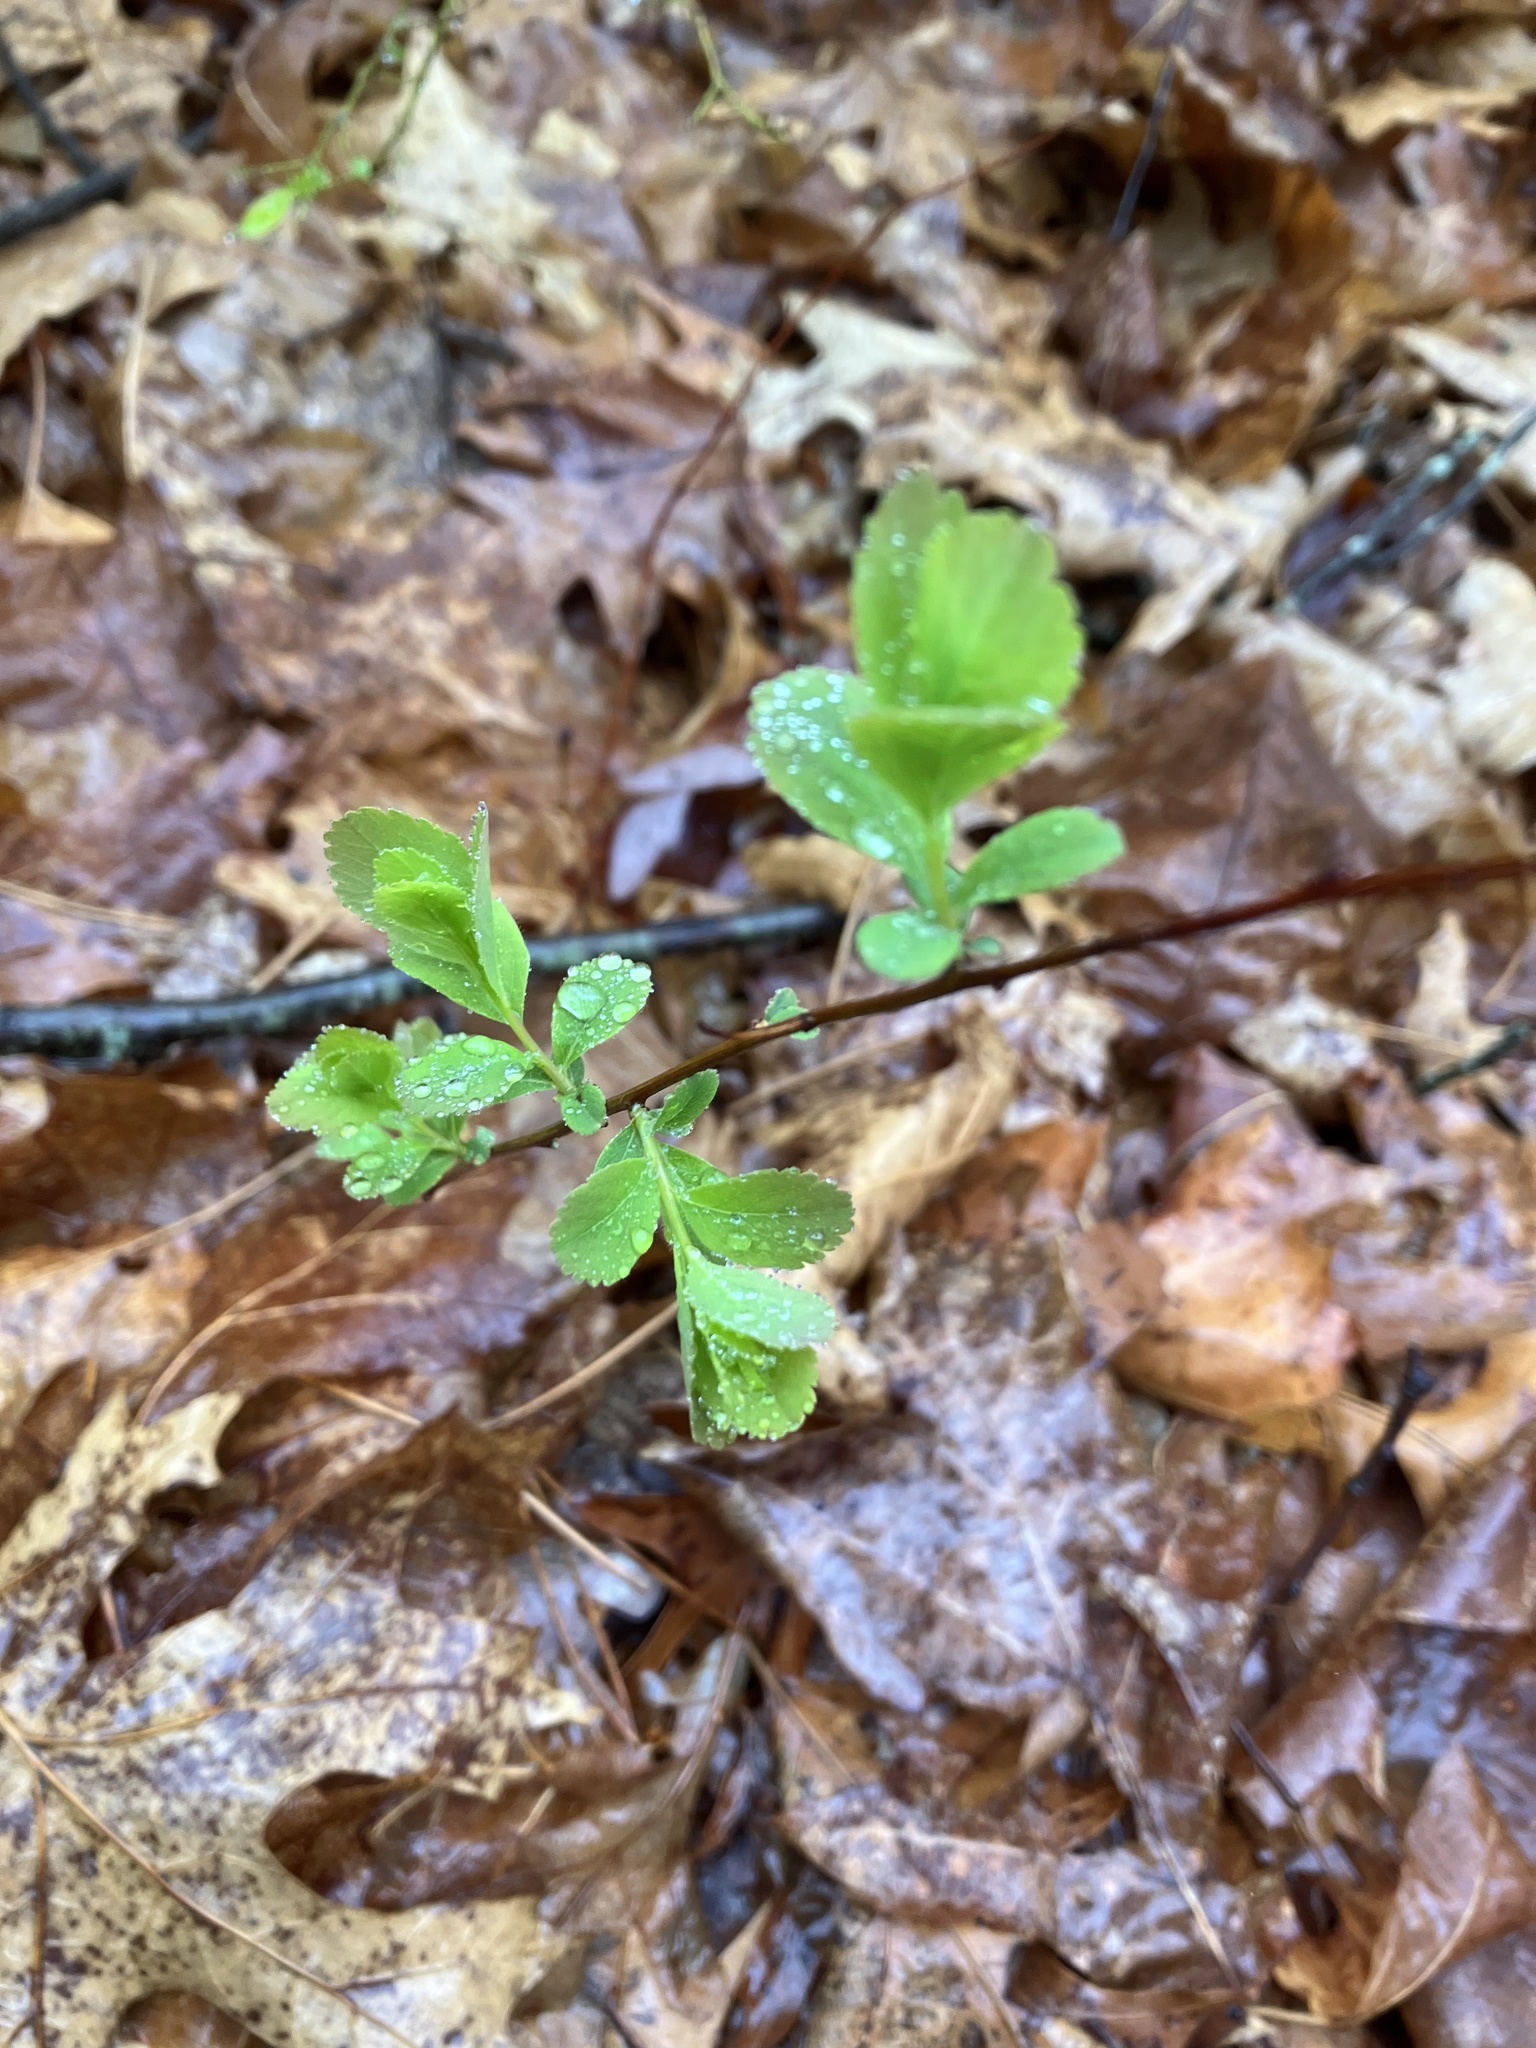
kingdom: Plantae
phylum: Tracheophyta
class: Magnoliopsida
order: Rosales
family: Rosaceae
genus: Spiraea
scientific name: Spiraea alba
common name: Pale bridewort
